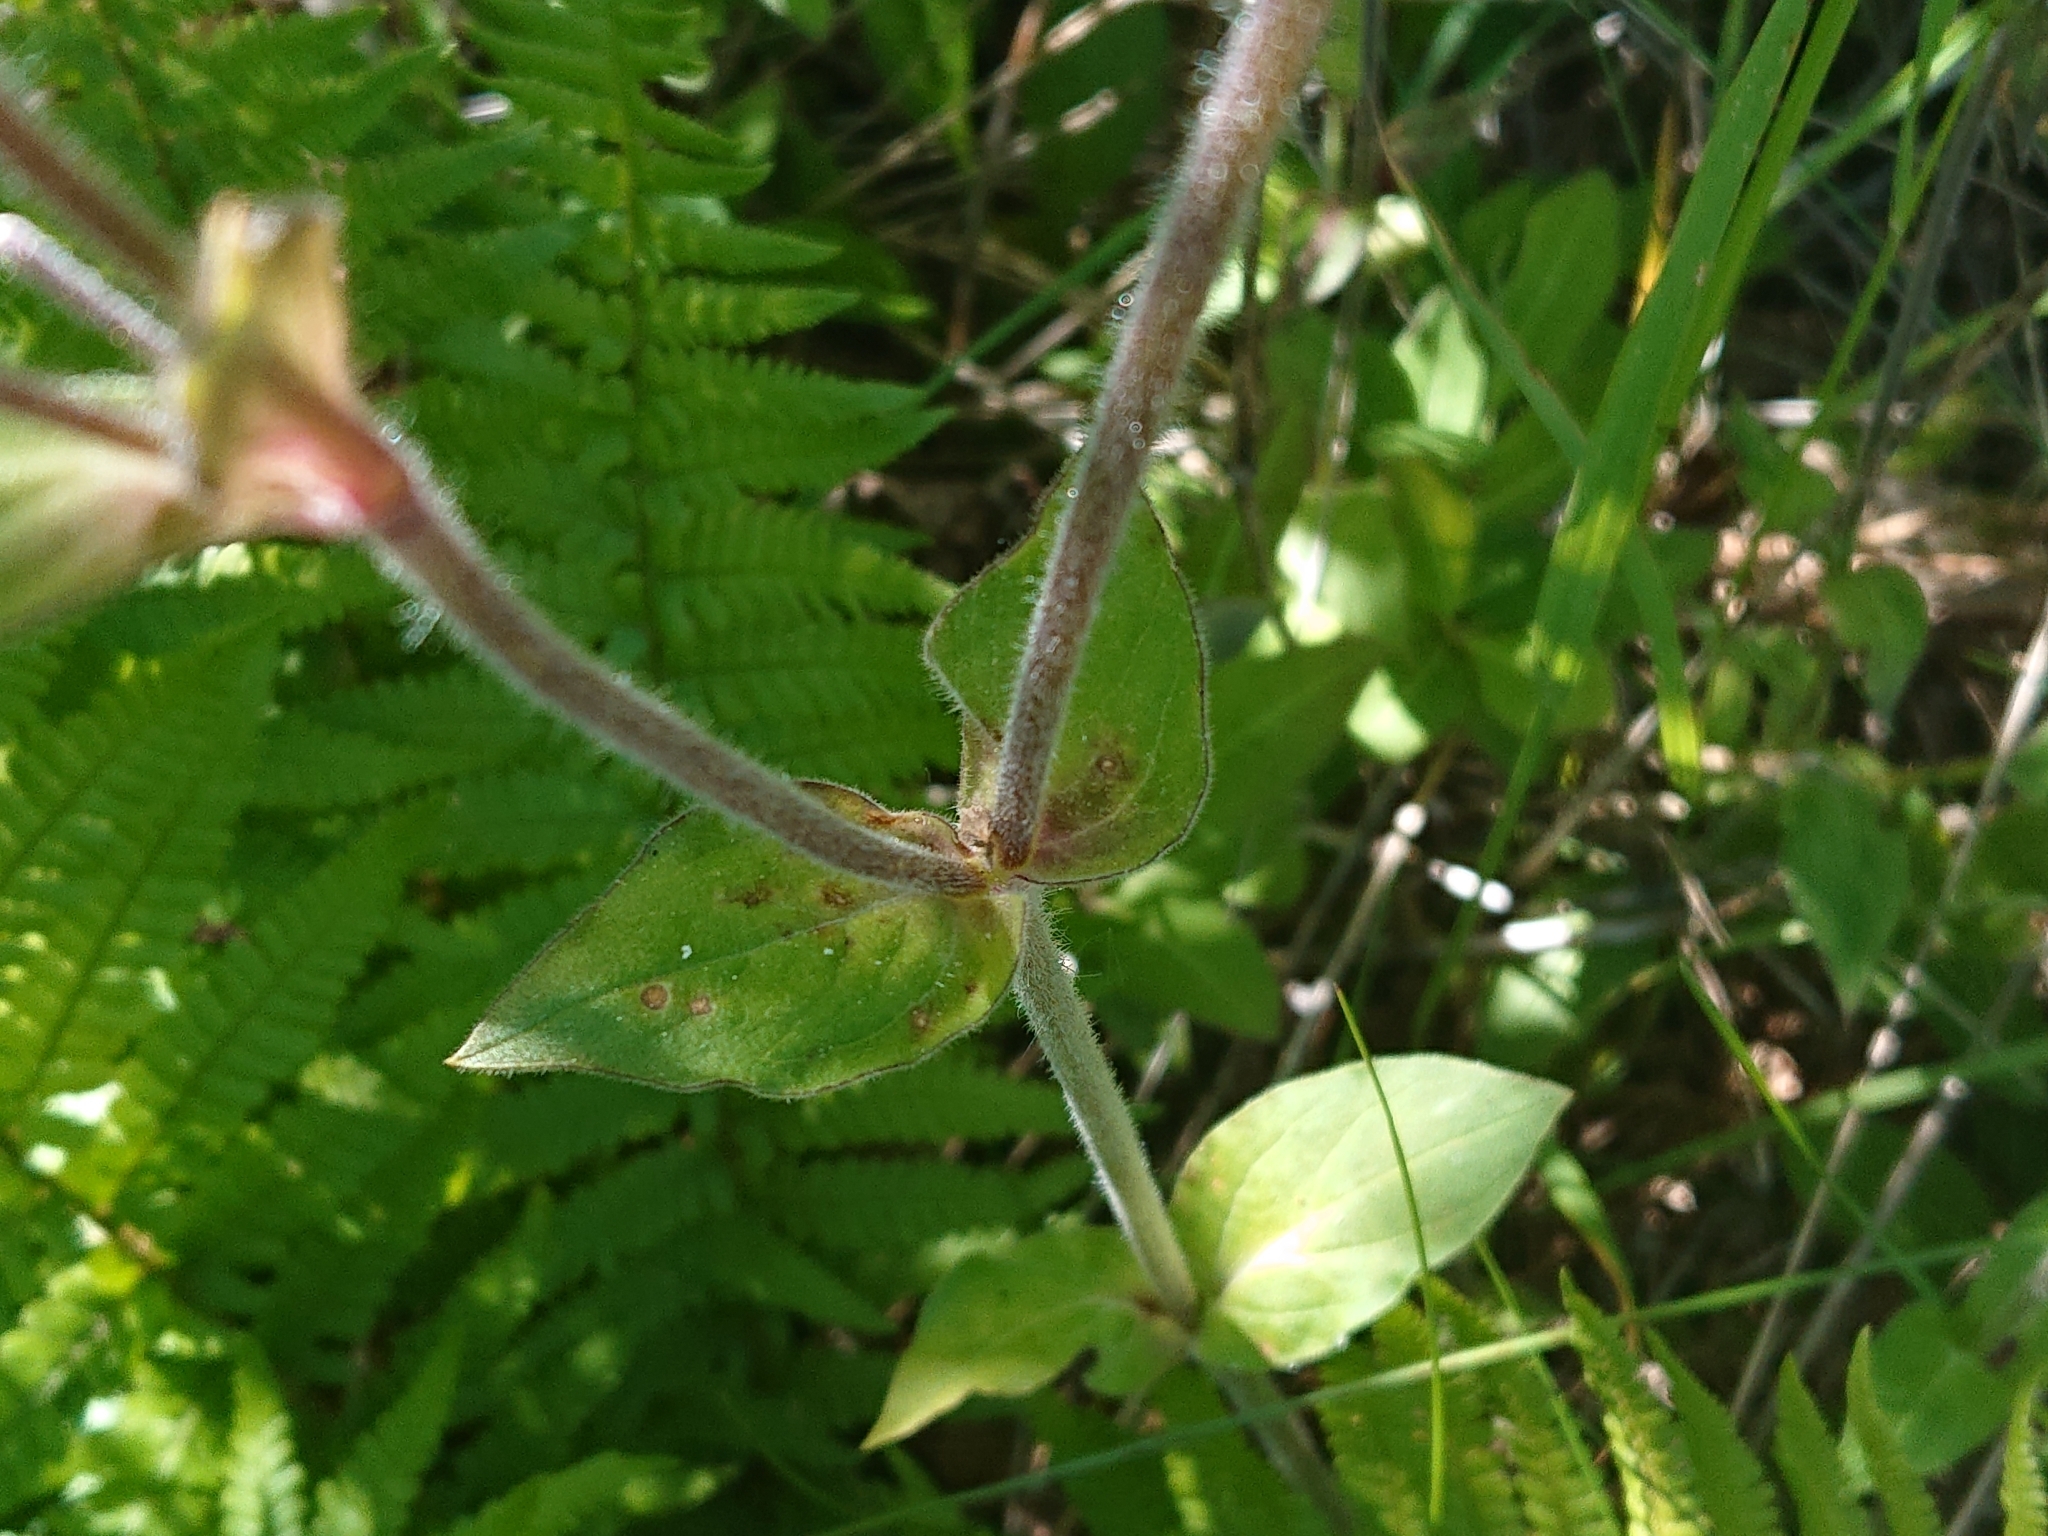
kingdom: Plantae
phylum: Tracheophyta
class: Magnoliopsida
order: Caryophyllales
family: Caryophyllaceae
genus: Silene
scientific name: Silene dioica
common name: Red campion
